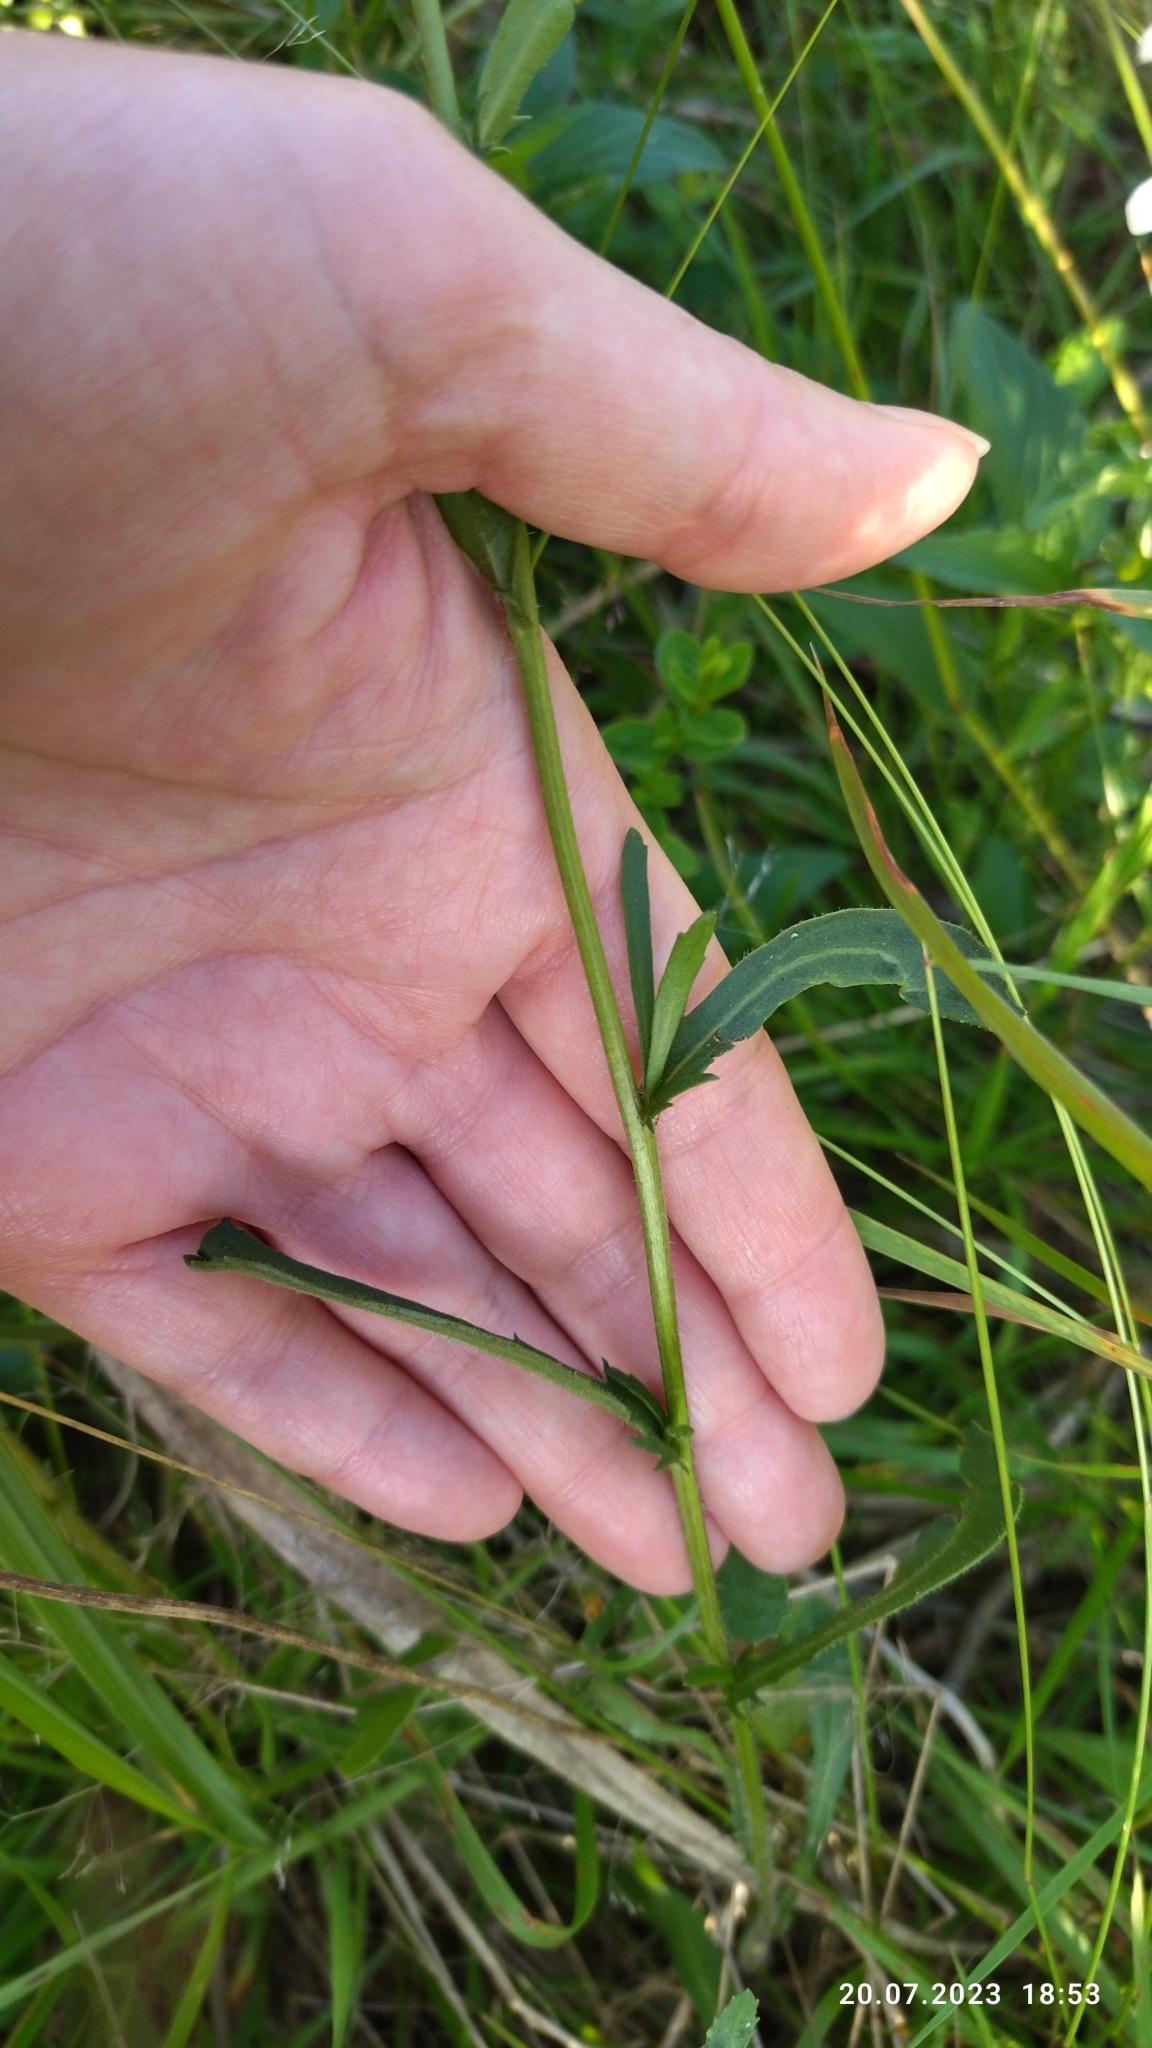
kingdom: Plantae
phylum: Tracheophyta
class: Magnoliopsida
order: Asterales
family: Asteraceae
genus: Leucanthemum
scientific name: Leucanthemum vulgare
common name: Oxeye daisy
